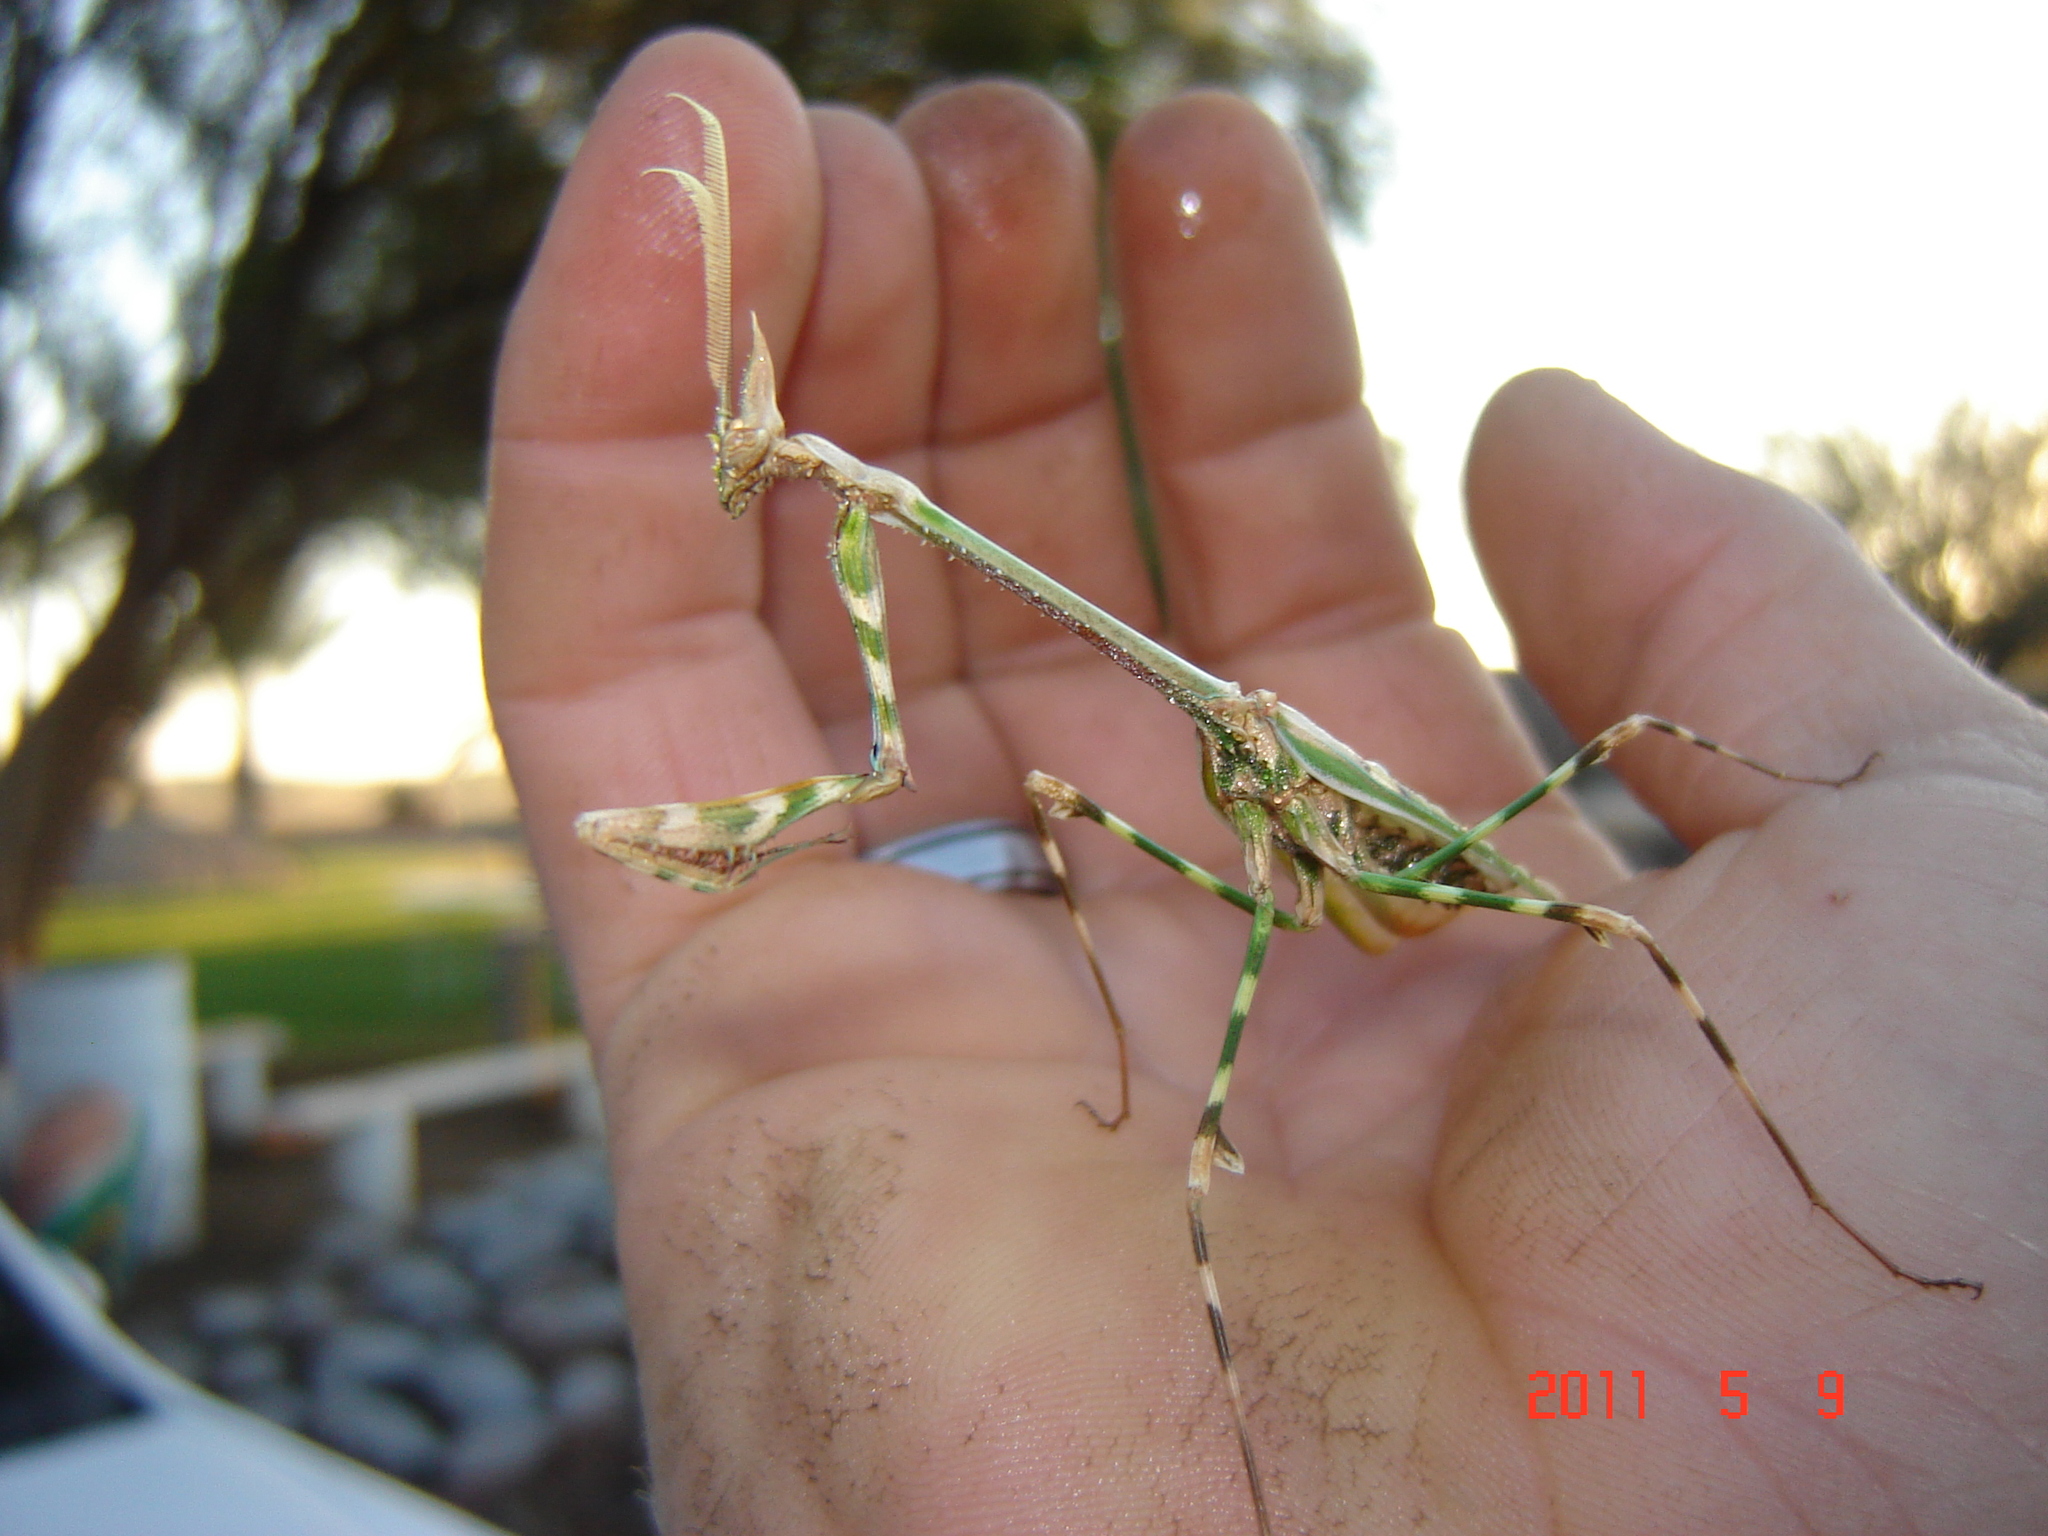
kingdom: Animalia
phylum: Arthropoda
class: Insecta
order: Mantodea
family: Empusidae
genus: Empusa
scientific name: Empusa binotata
